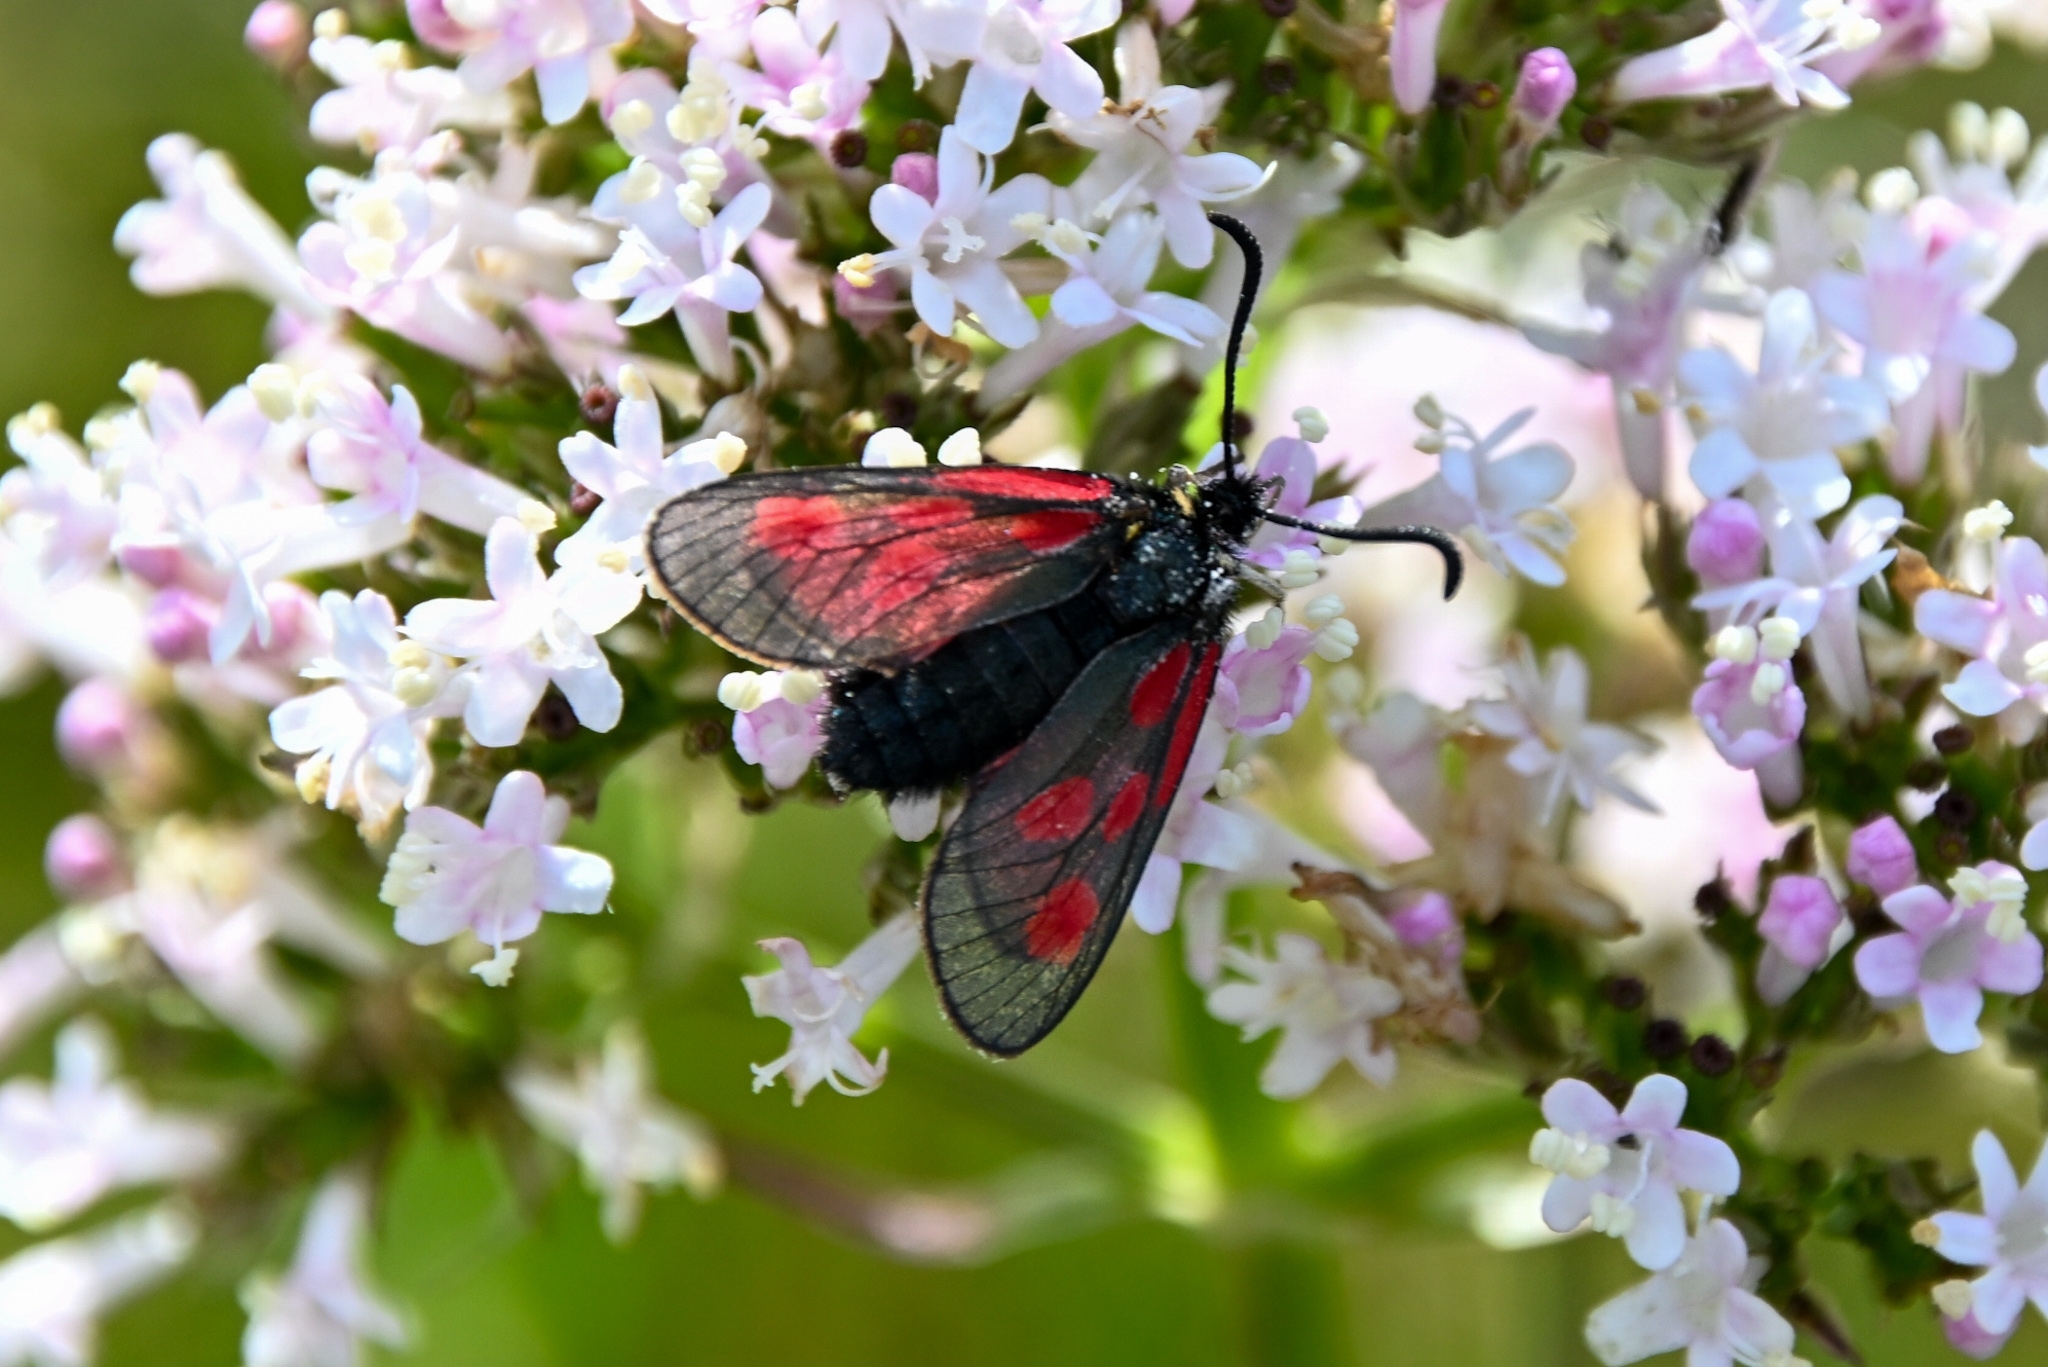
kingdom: Animalia
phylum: Arthropoda
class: Insecta
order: Lepidoptera
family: Zygaenidae
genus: Zygaena
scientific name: Zygaena exulans
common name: Scotch burnet
